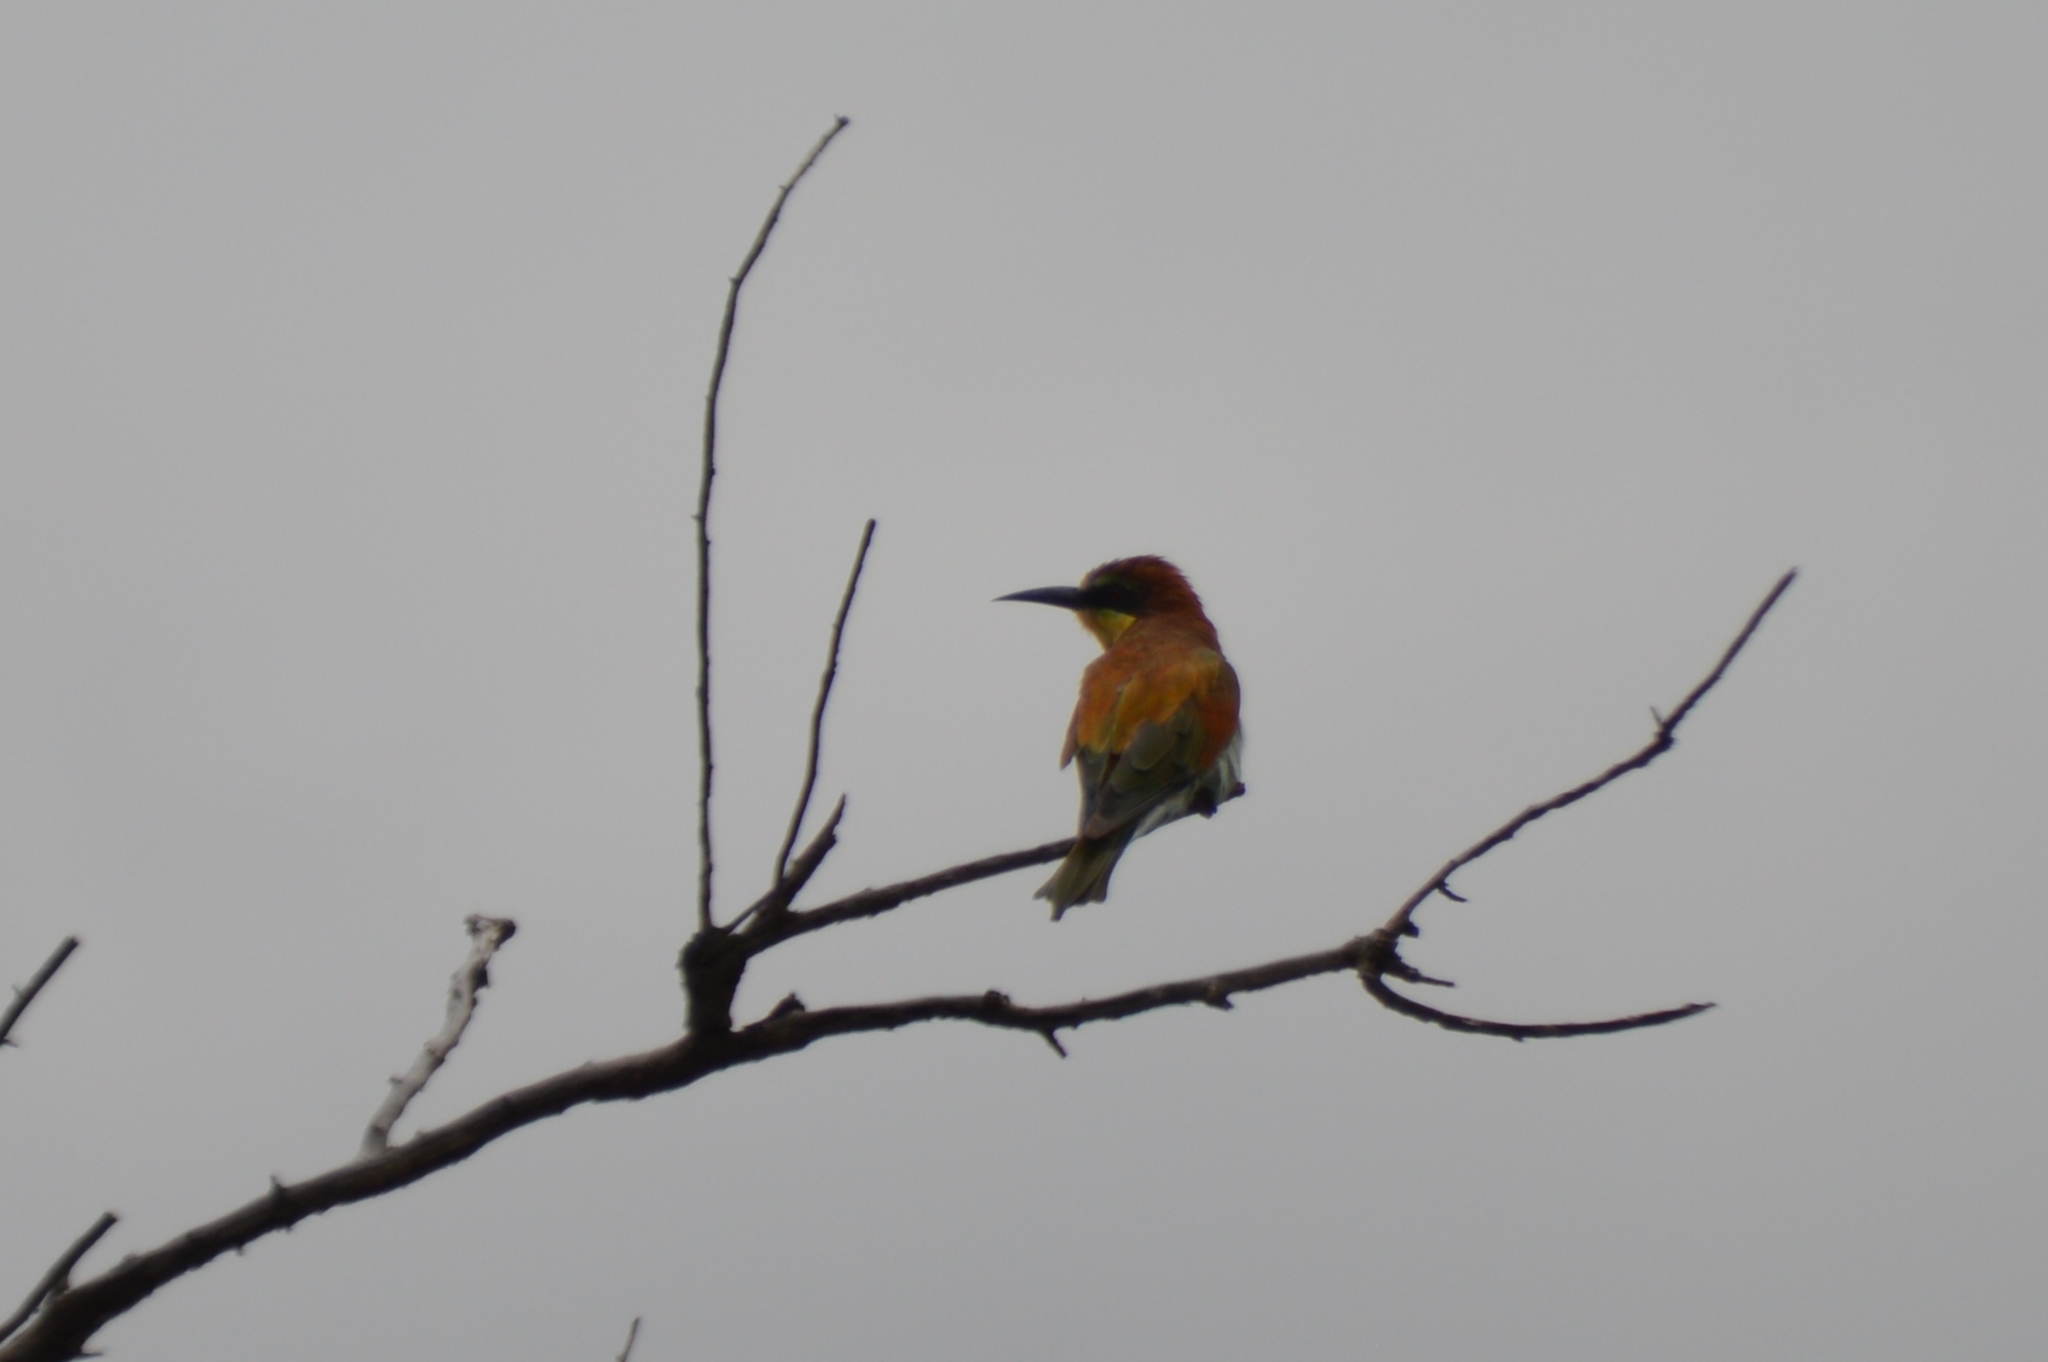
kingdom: Animalia
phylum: Chordata
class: Aves
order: Coraciiformes
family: Meropidae
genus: Merops
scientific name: Merops apiaster
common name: European bee-eater
